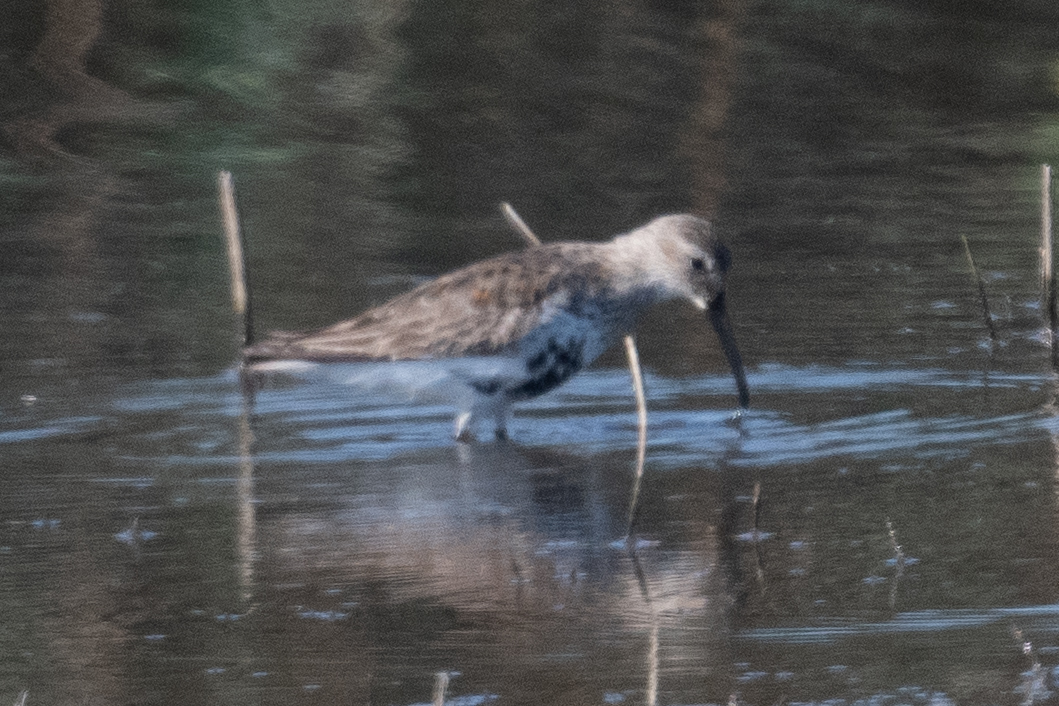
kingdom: Animalia
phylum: Chordata
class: Aves
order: Charadriiformes
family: Scolopacidae
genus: Calidris
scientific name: Calidris alpina
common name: Dunlin
